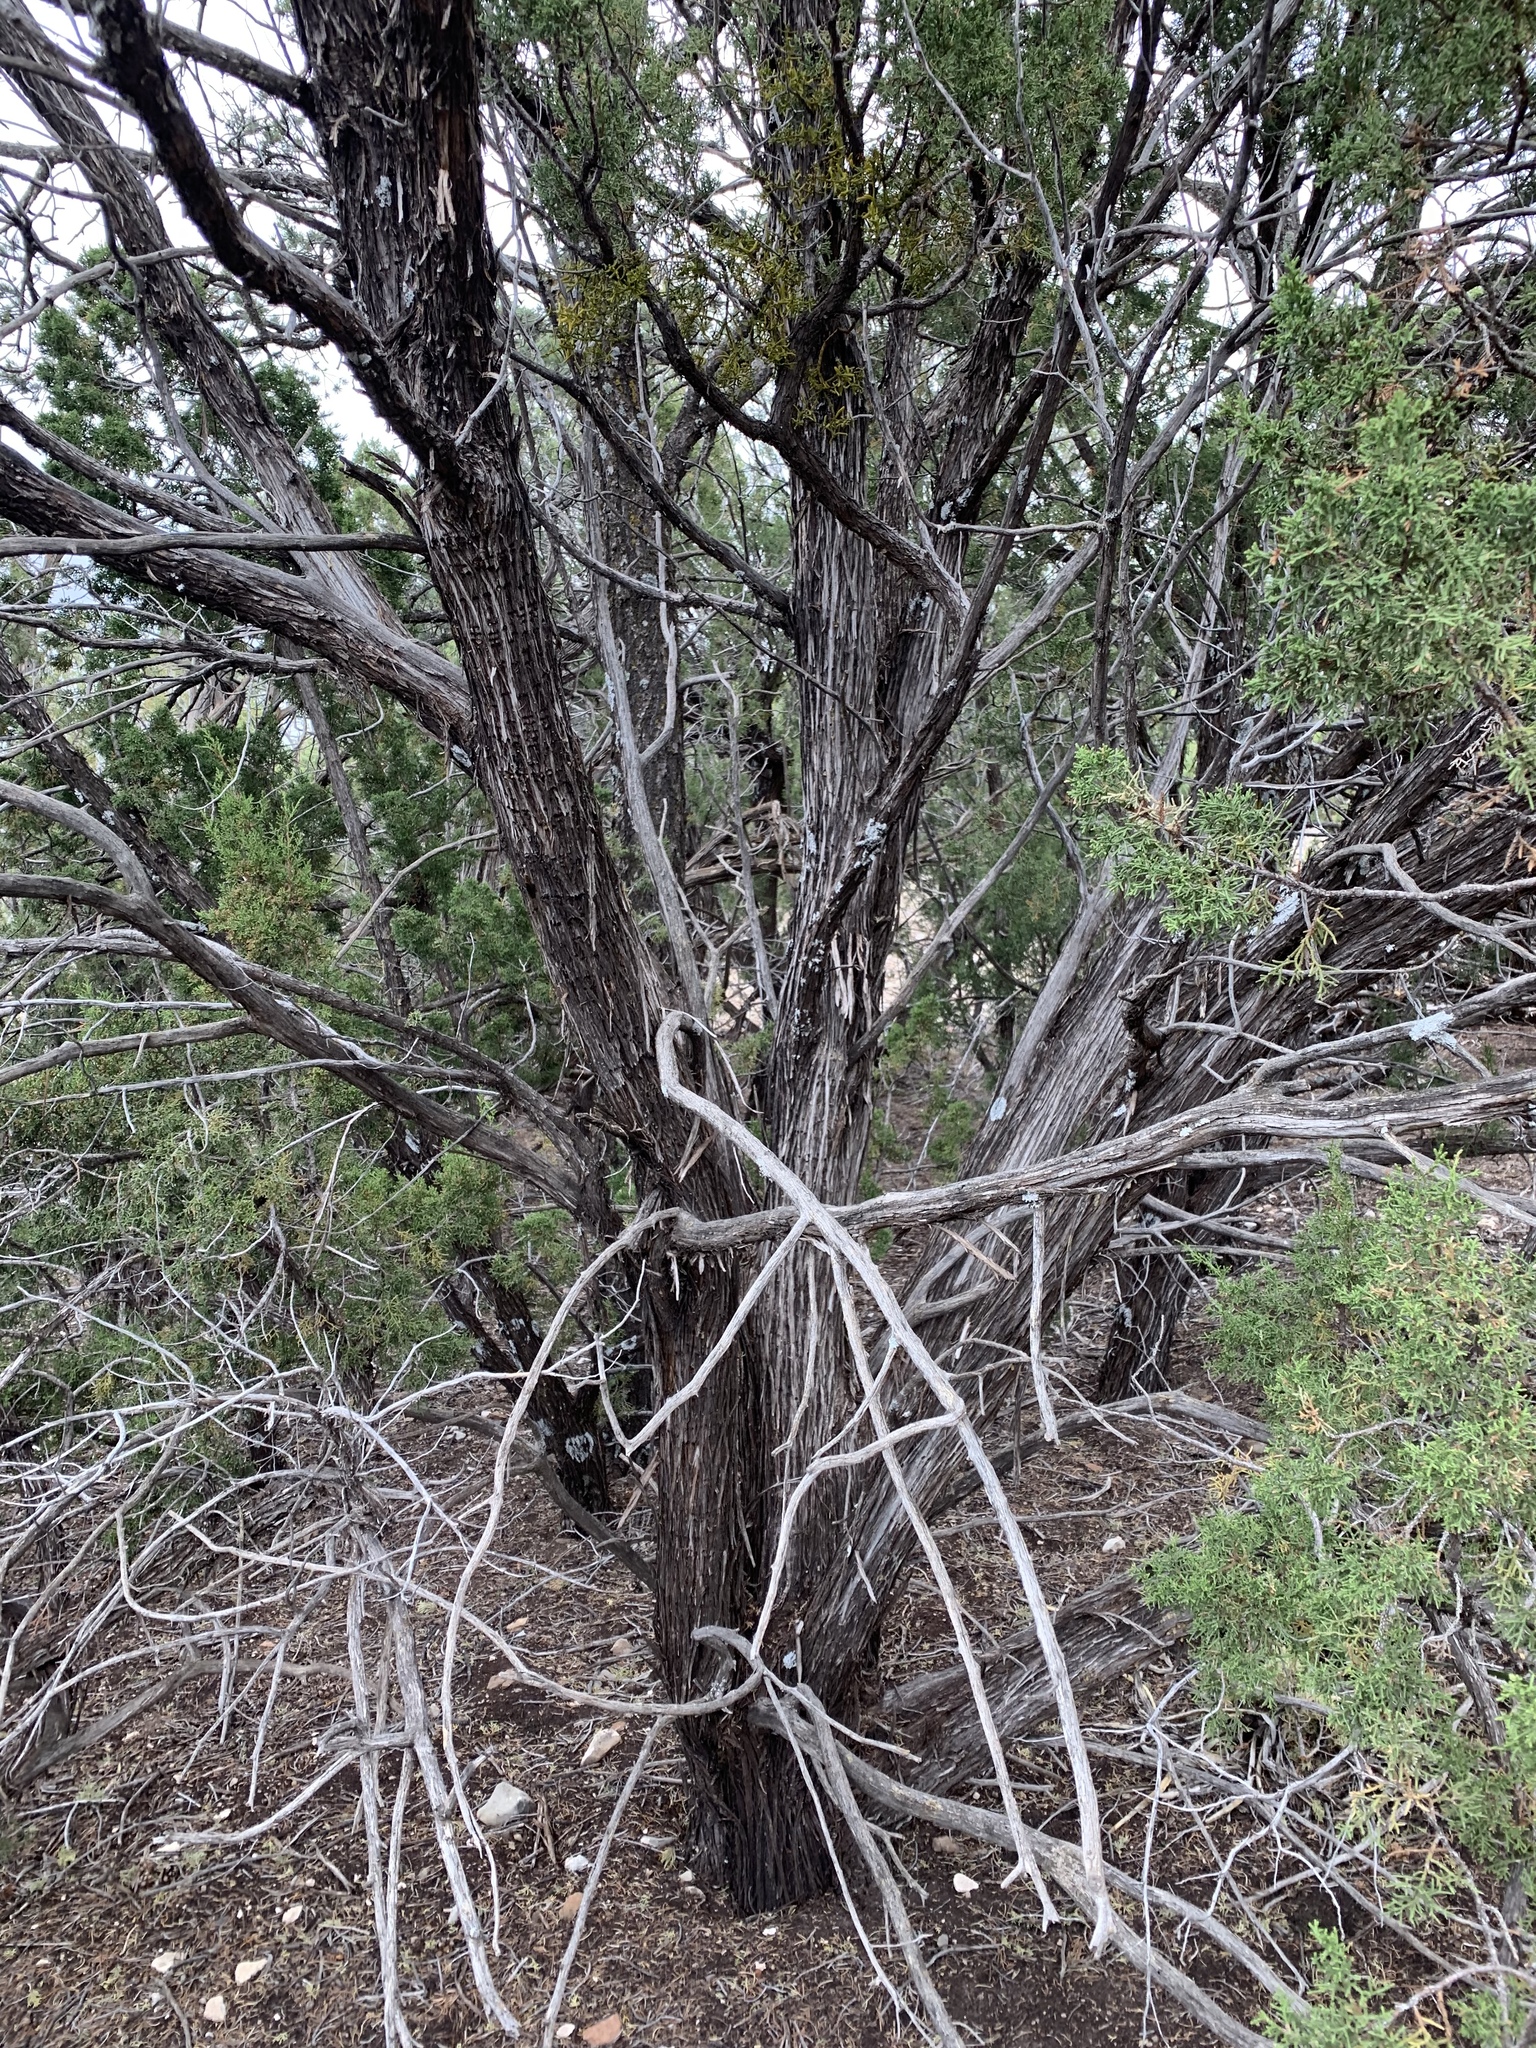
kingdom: Plantae
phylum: Tracheophyta
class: Pinopsida
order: Pinales
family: Cupressaceae
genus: Juniperus
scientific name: Juniperus monosperma
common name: One-seed juniper
